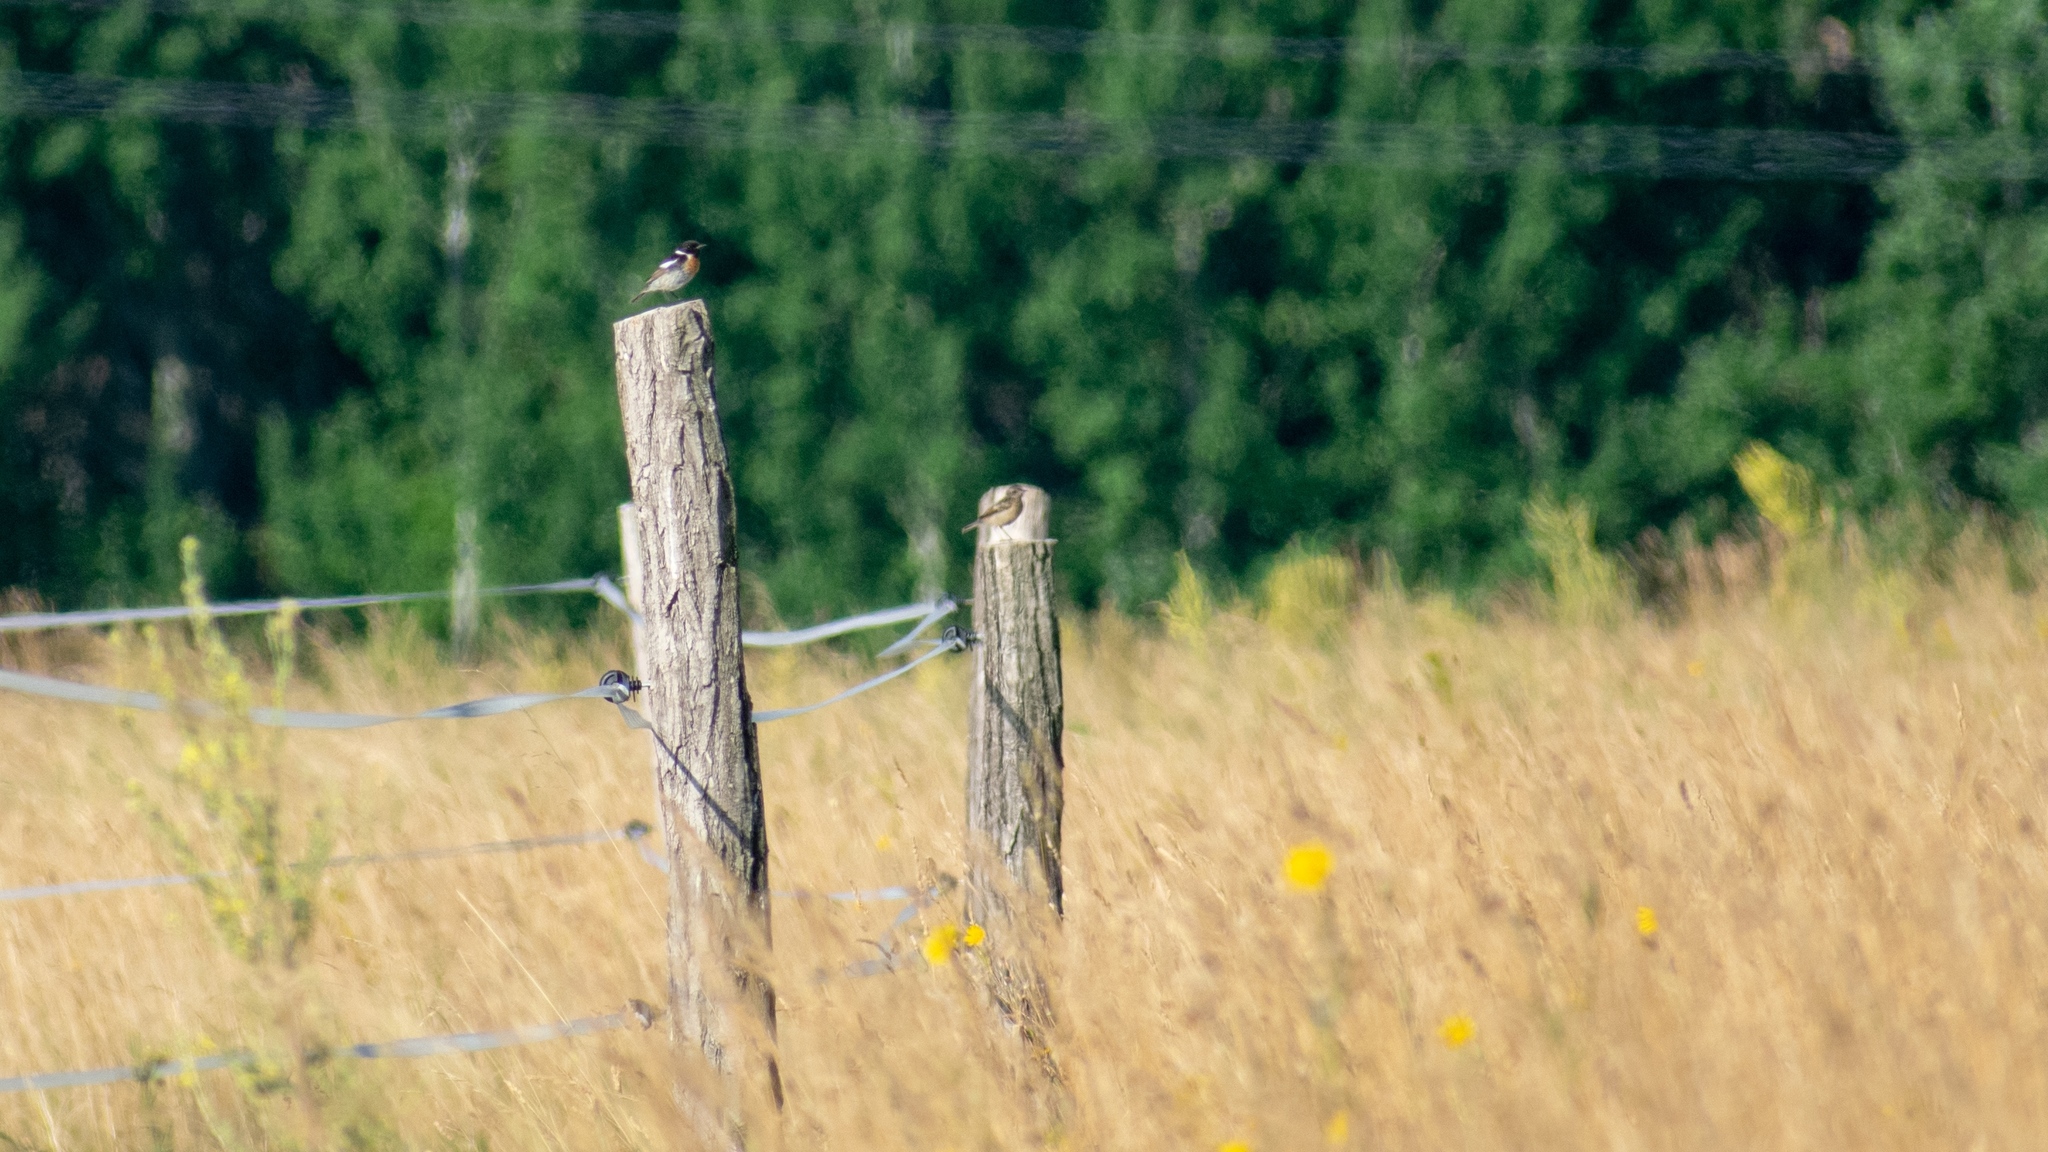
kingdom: Animalia
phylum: Chordata
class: Aves
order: Passeriformes
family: Muscicapidae
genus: Saxicola
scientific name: Saxicola rubicola
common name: European stonechat
